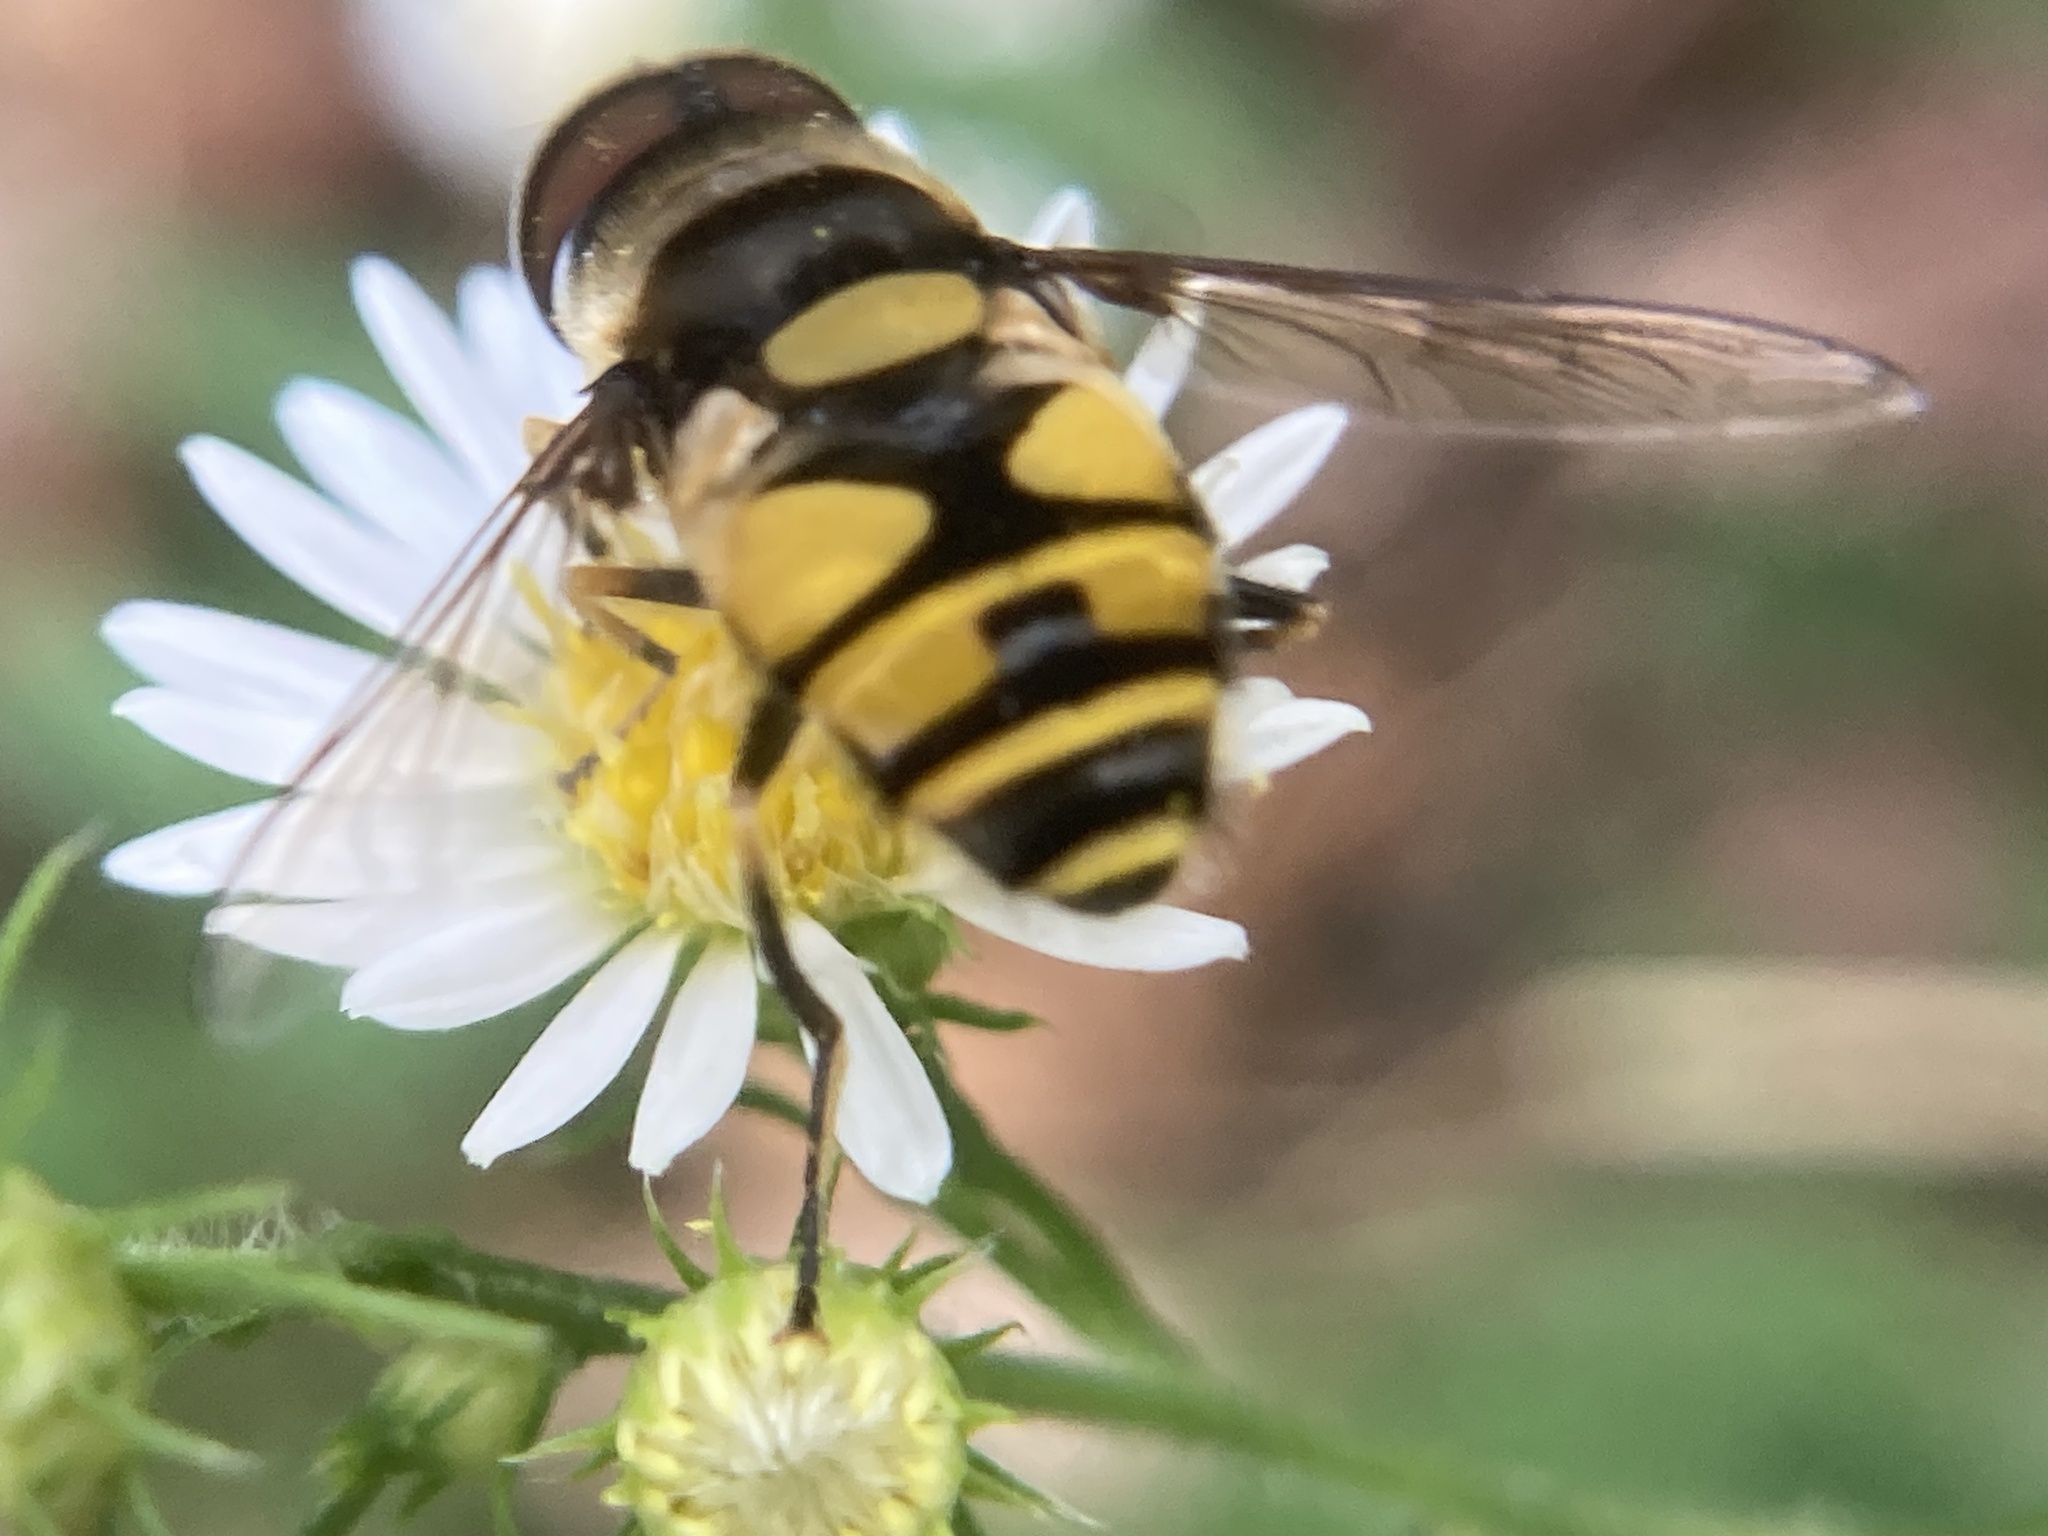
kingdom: Animalia
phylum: Arthropoda
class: Insecta
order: Diptera
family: Syrphidae
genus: Eristalis
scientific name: Eristalis transversa
